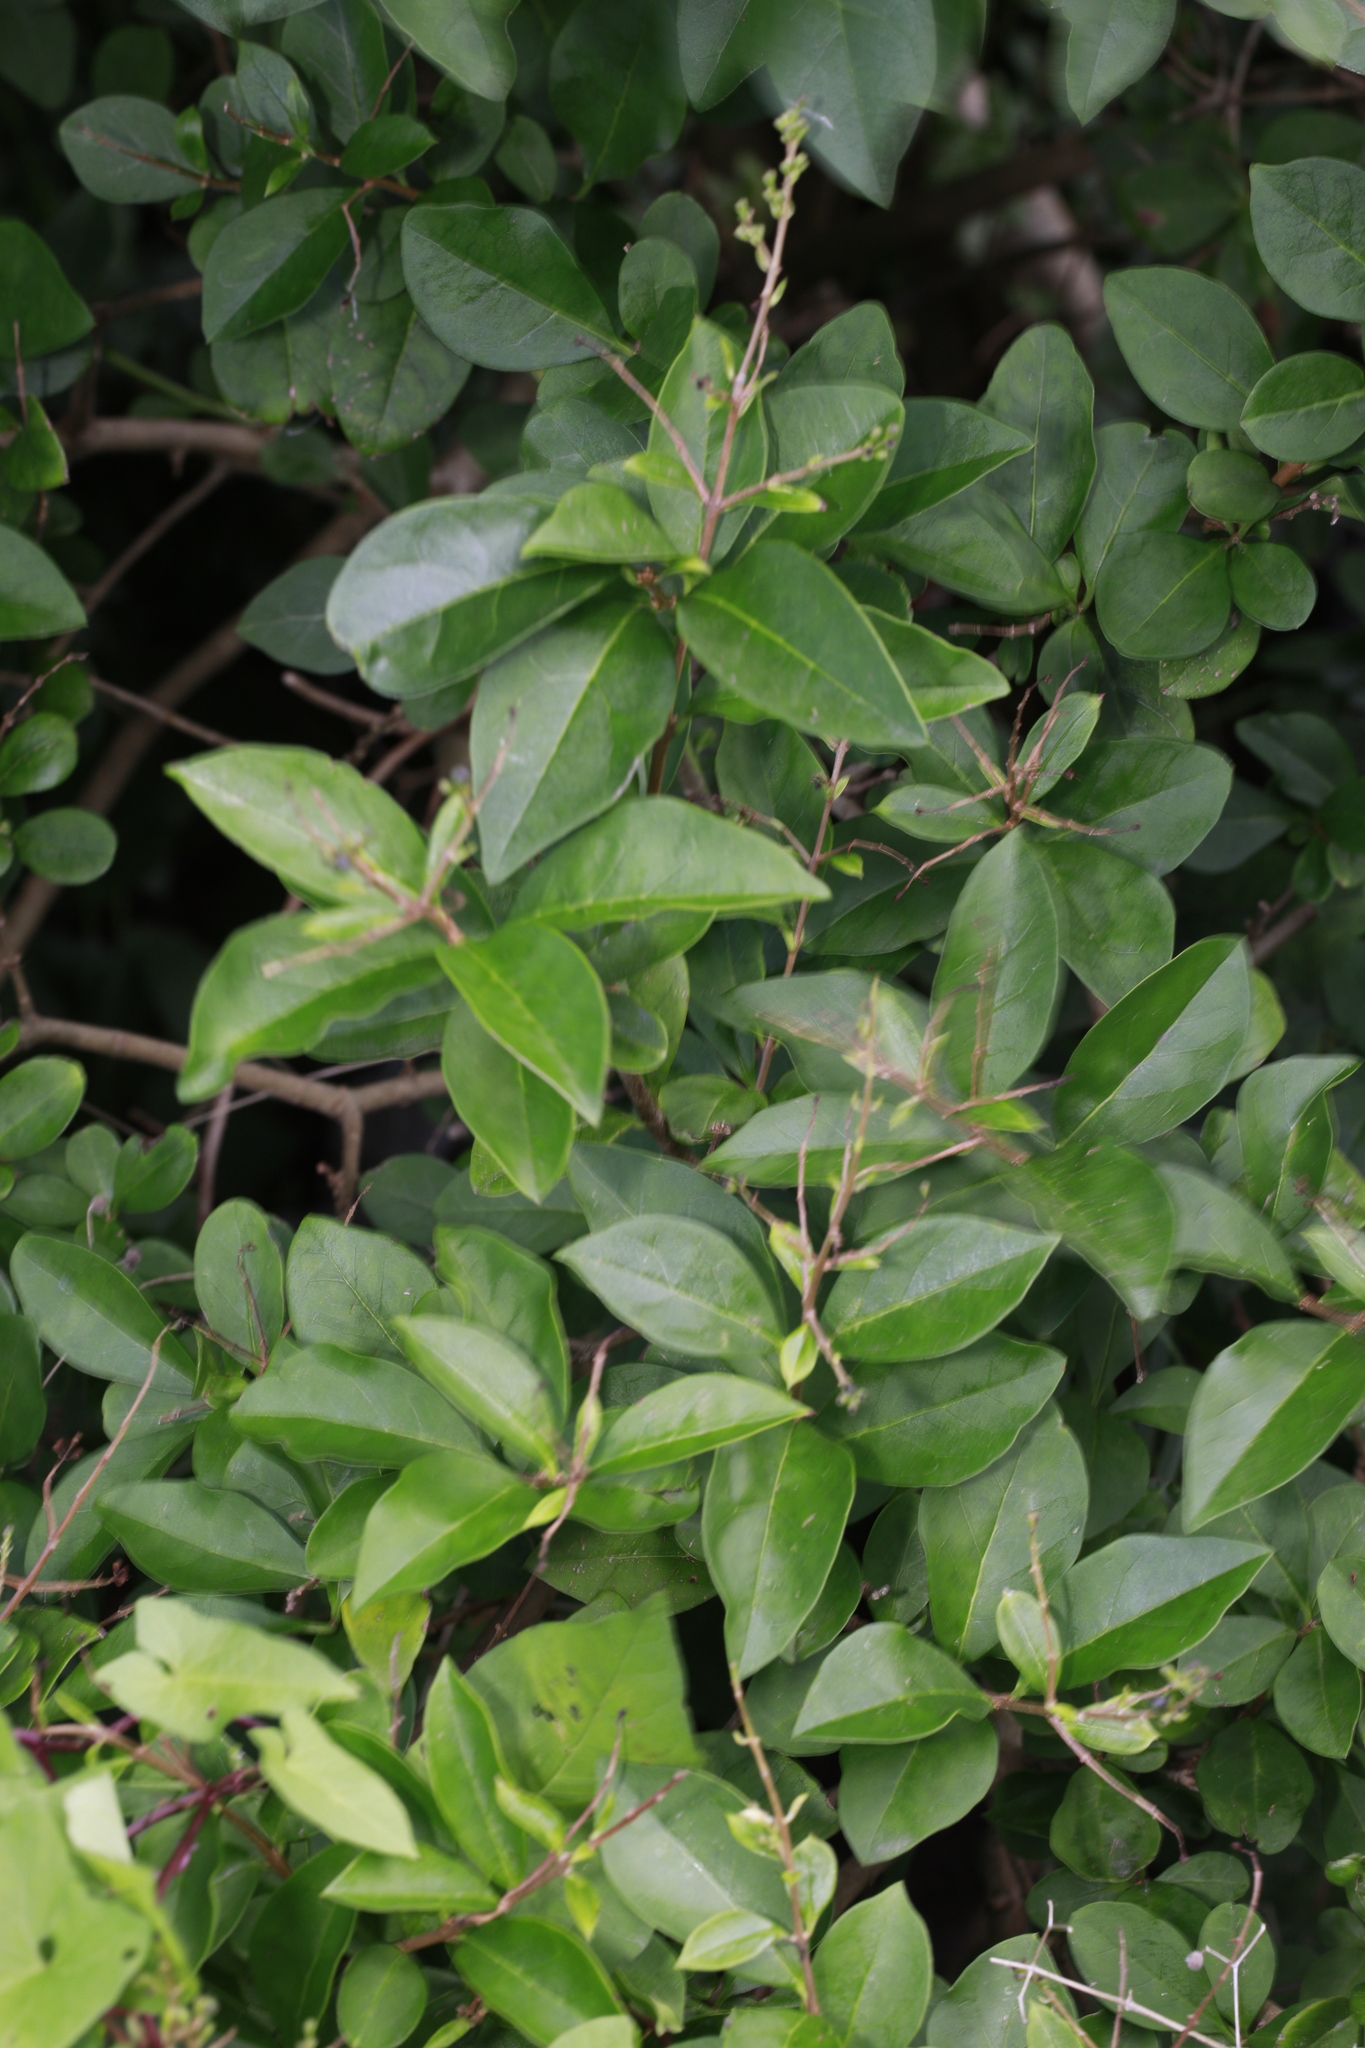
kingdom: Plantae
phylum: Tracheophyta
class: Magnoliopsida
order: Lamiales
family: Oleaceae
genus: Ligustrum
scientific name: Ligustrum ovalifolium
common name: California privet
